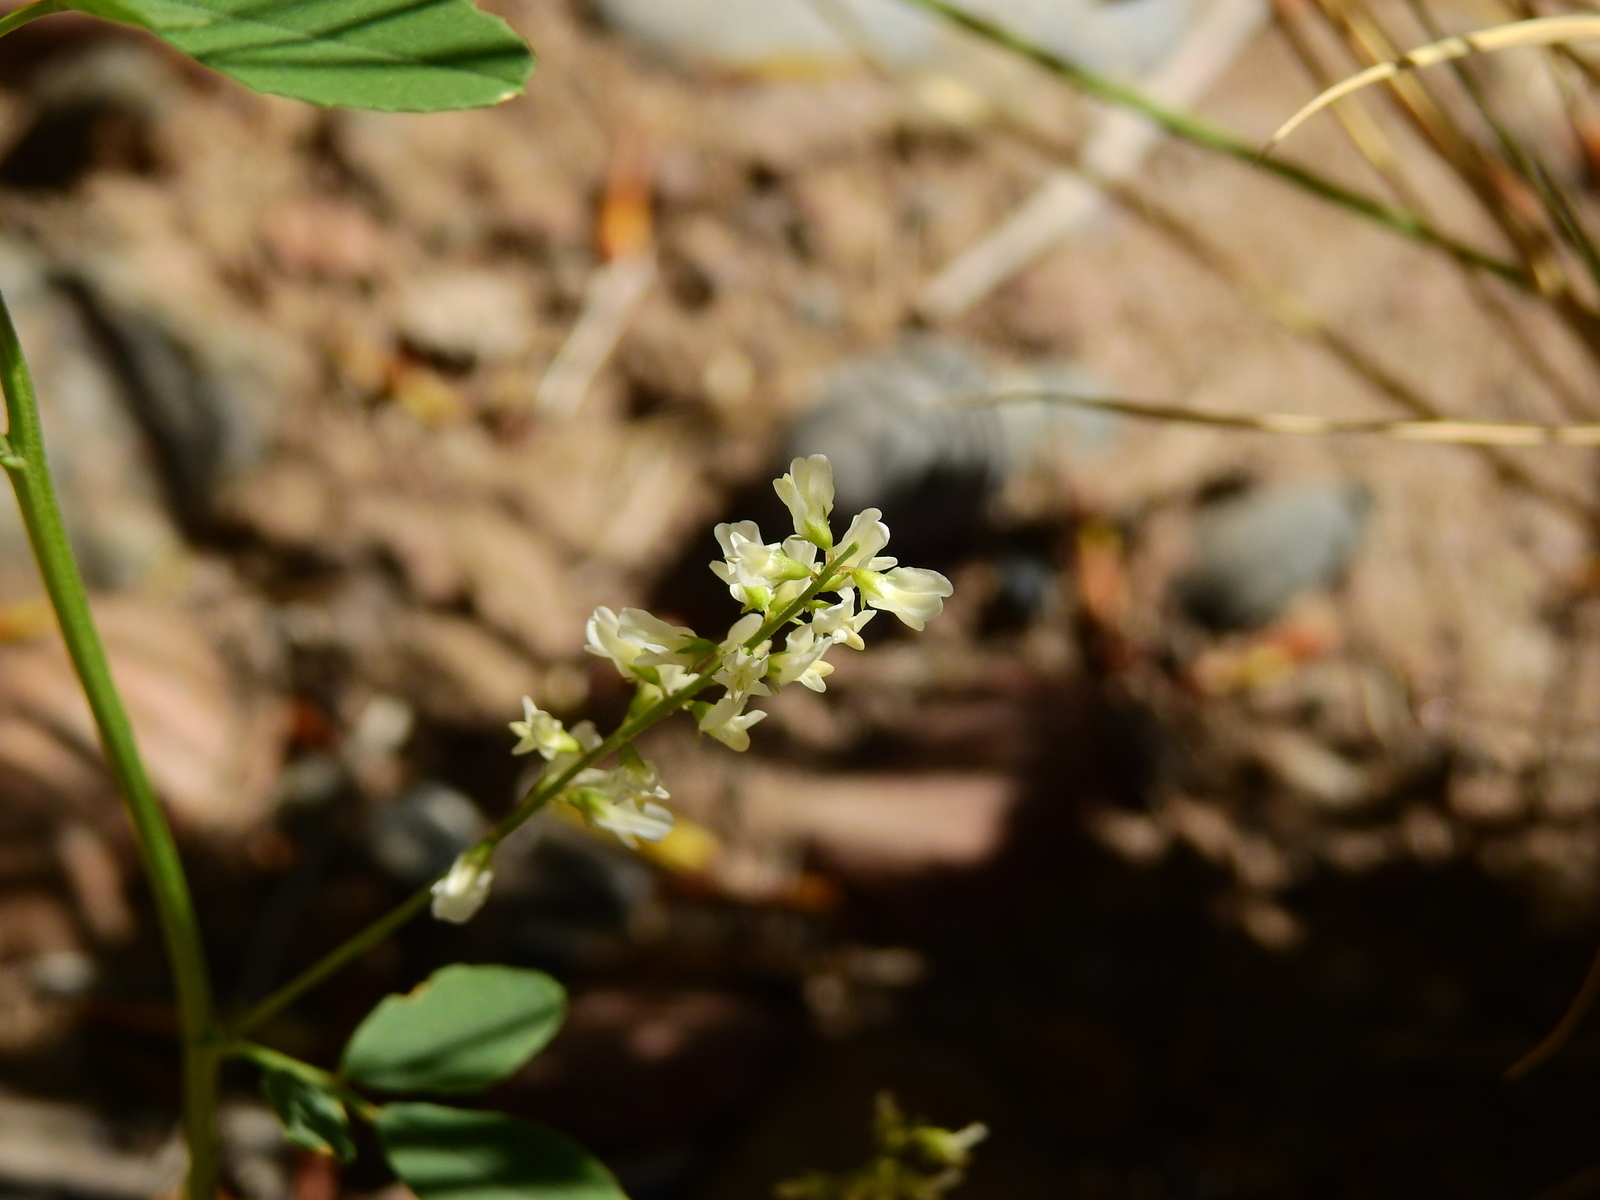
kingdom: Plantae
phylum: Tracheophyta
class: Magnoliopsida
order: Fabales
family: Fabaceae
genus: Melilotus
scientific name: Melilotus albus
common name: White melilot
